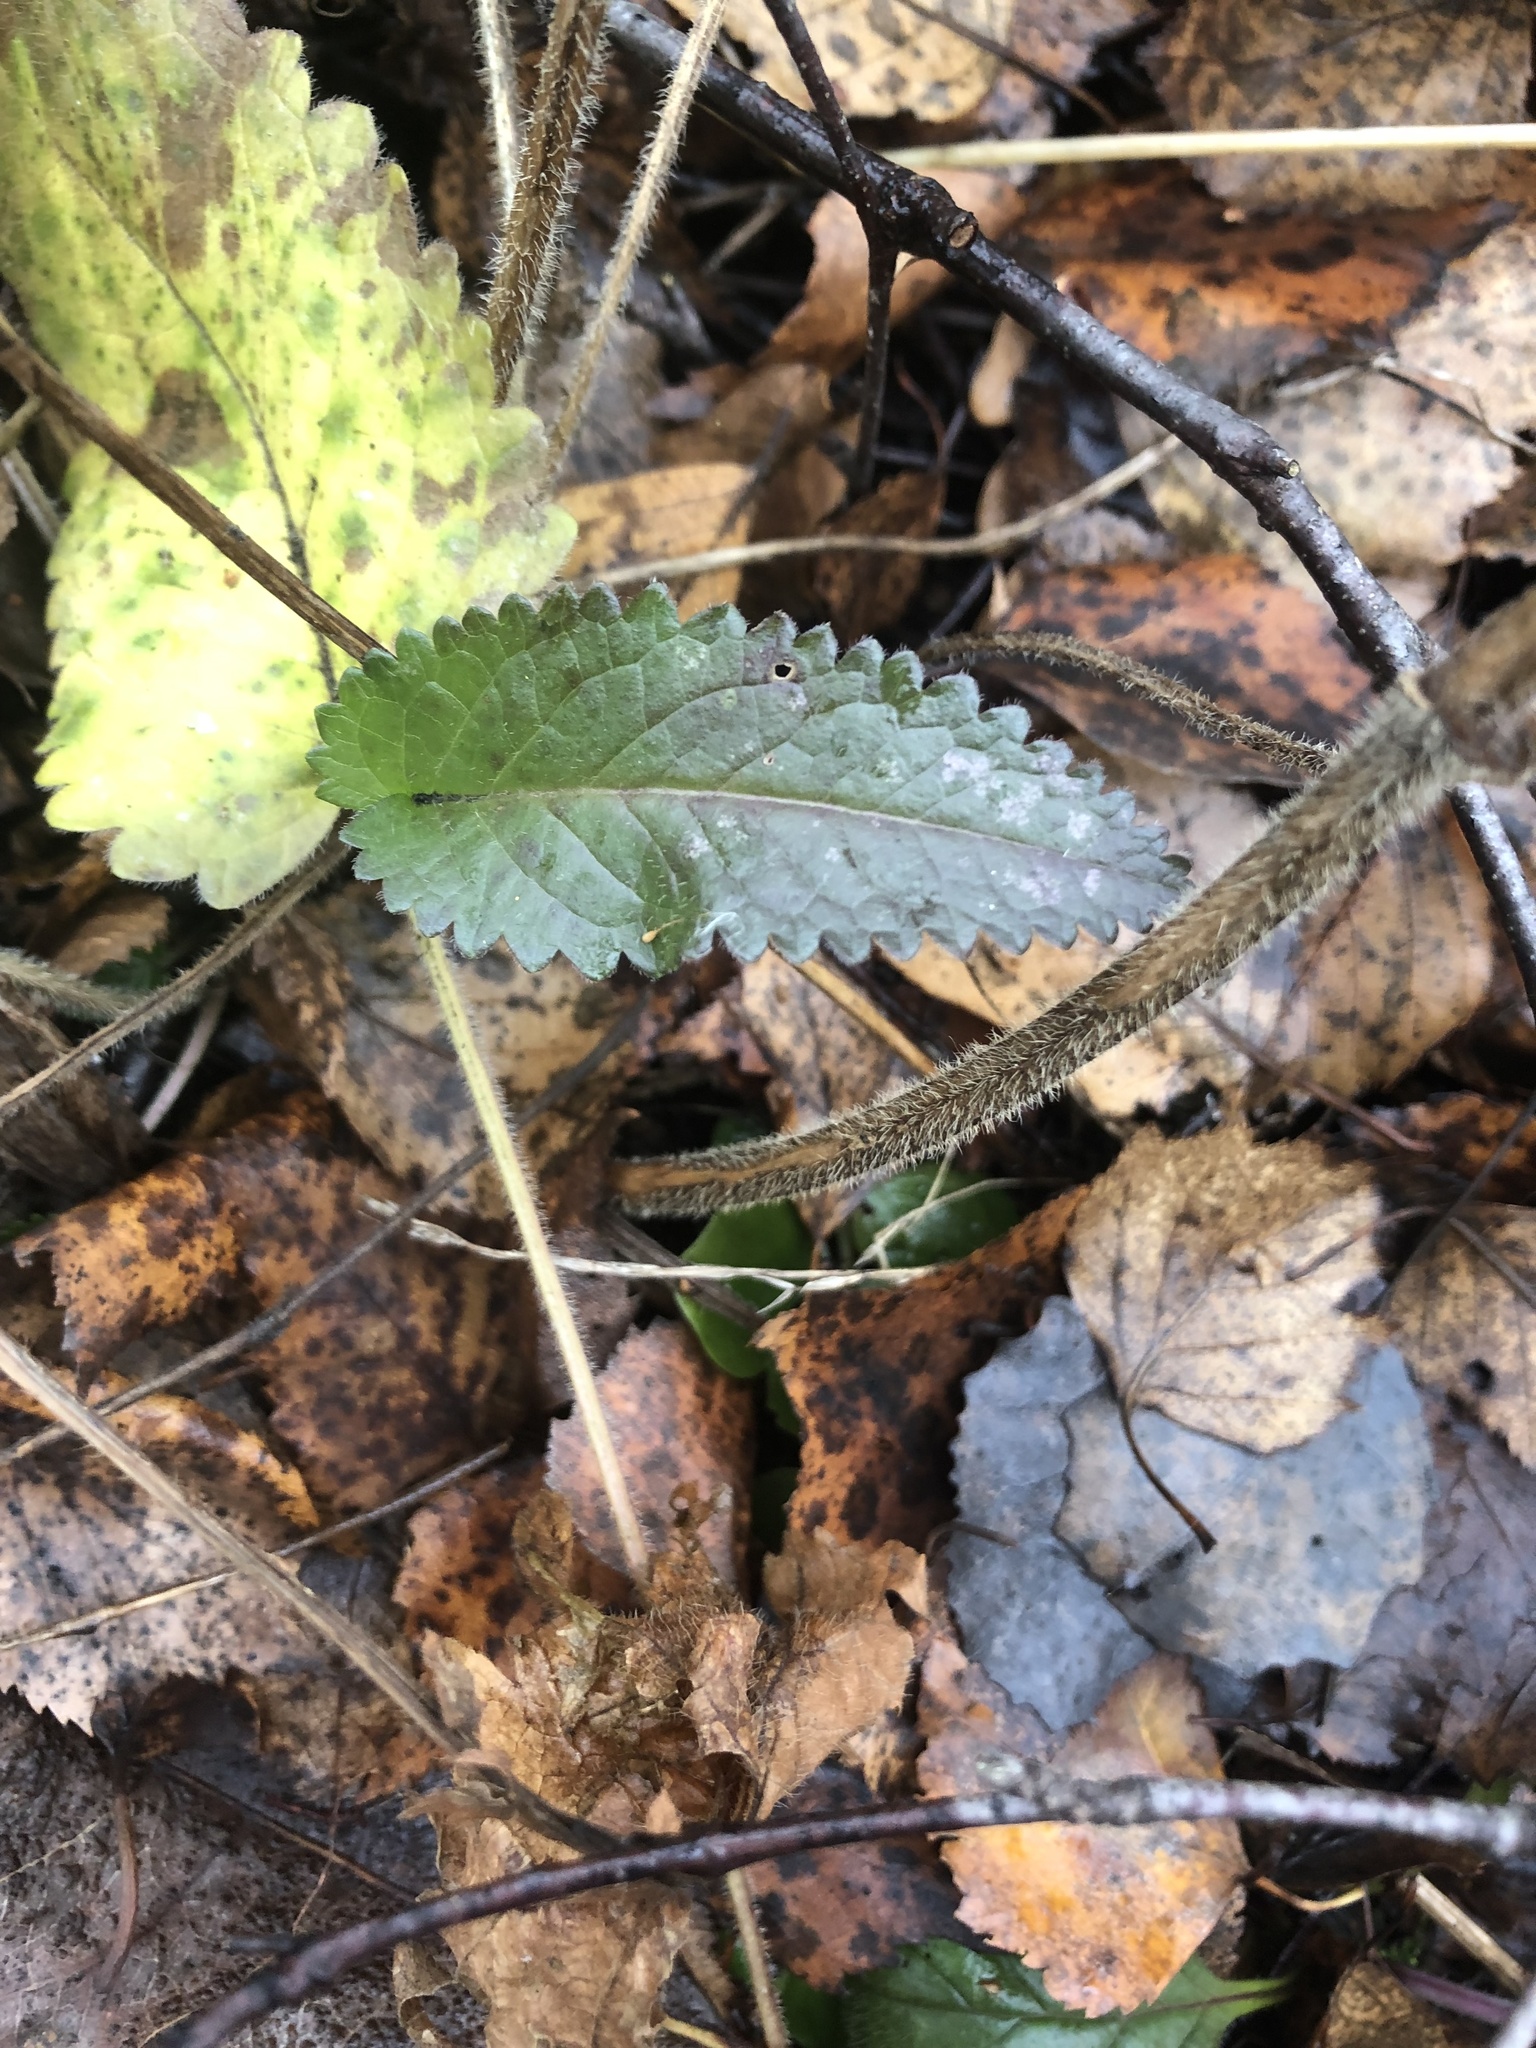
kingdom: Plantae
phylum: Tracheophyta
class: Magnoliopsida
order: Lamiales
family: Lamiaceae
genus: Betonica
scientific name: Betonica officinalis
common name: Bishop's-wort
